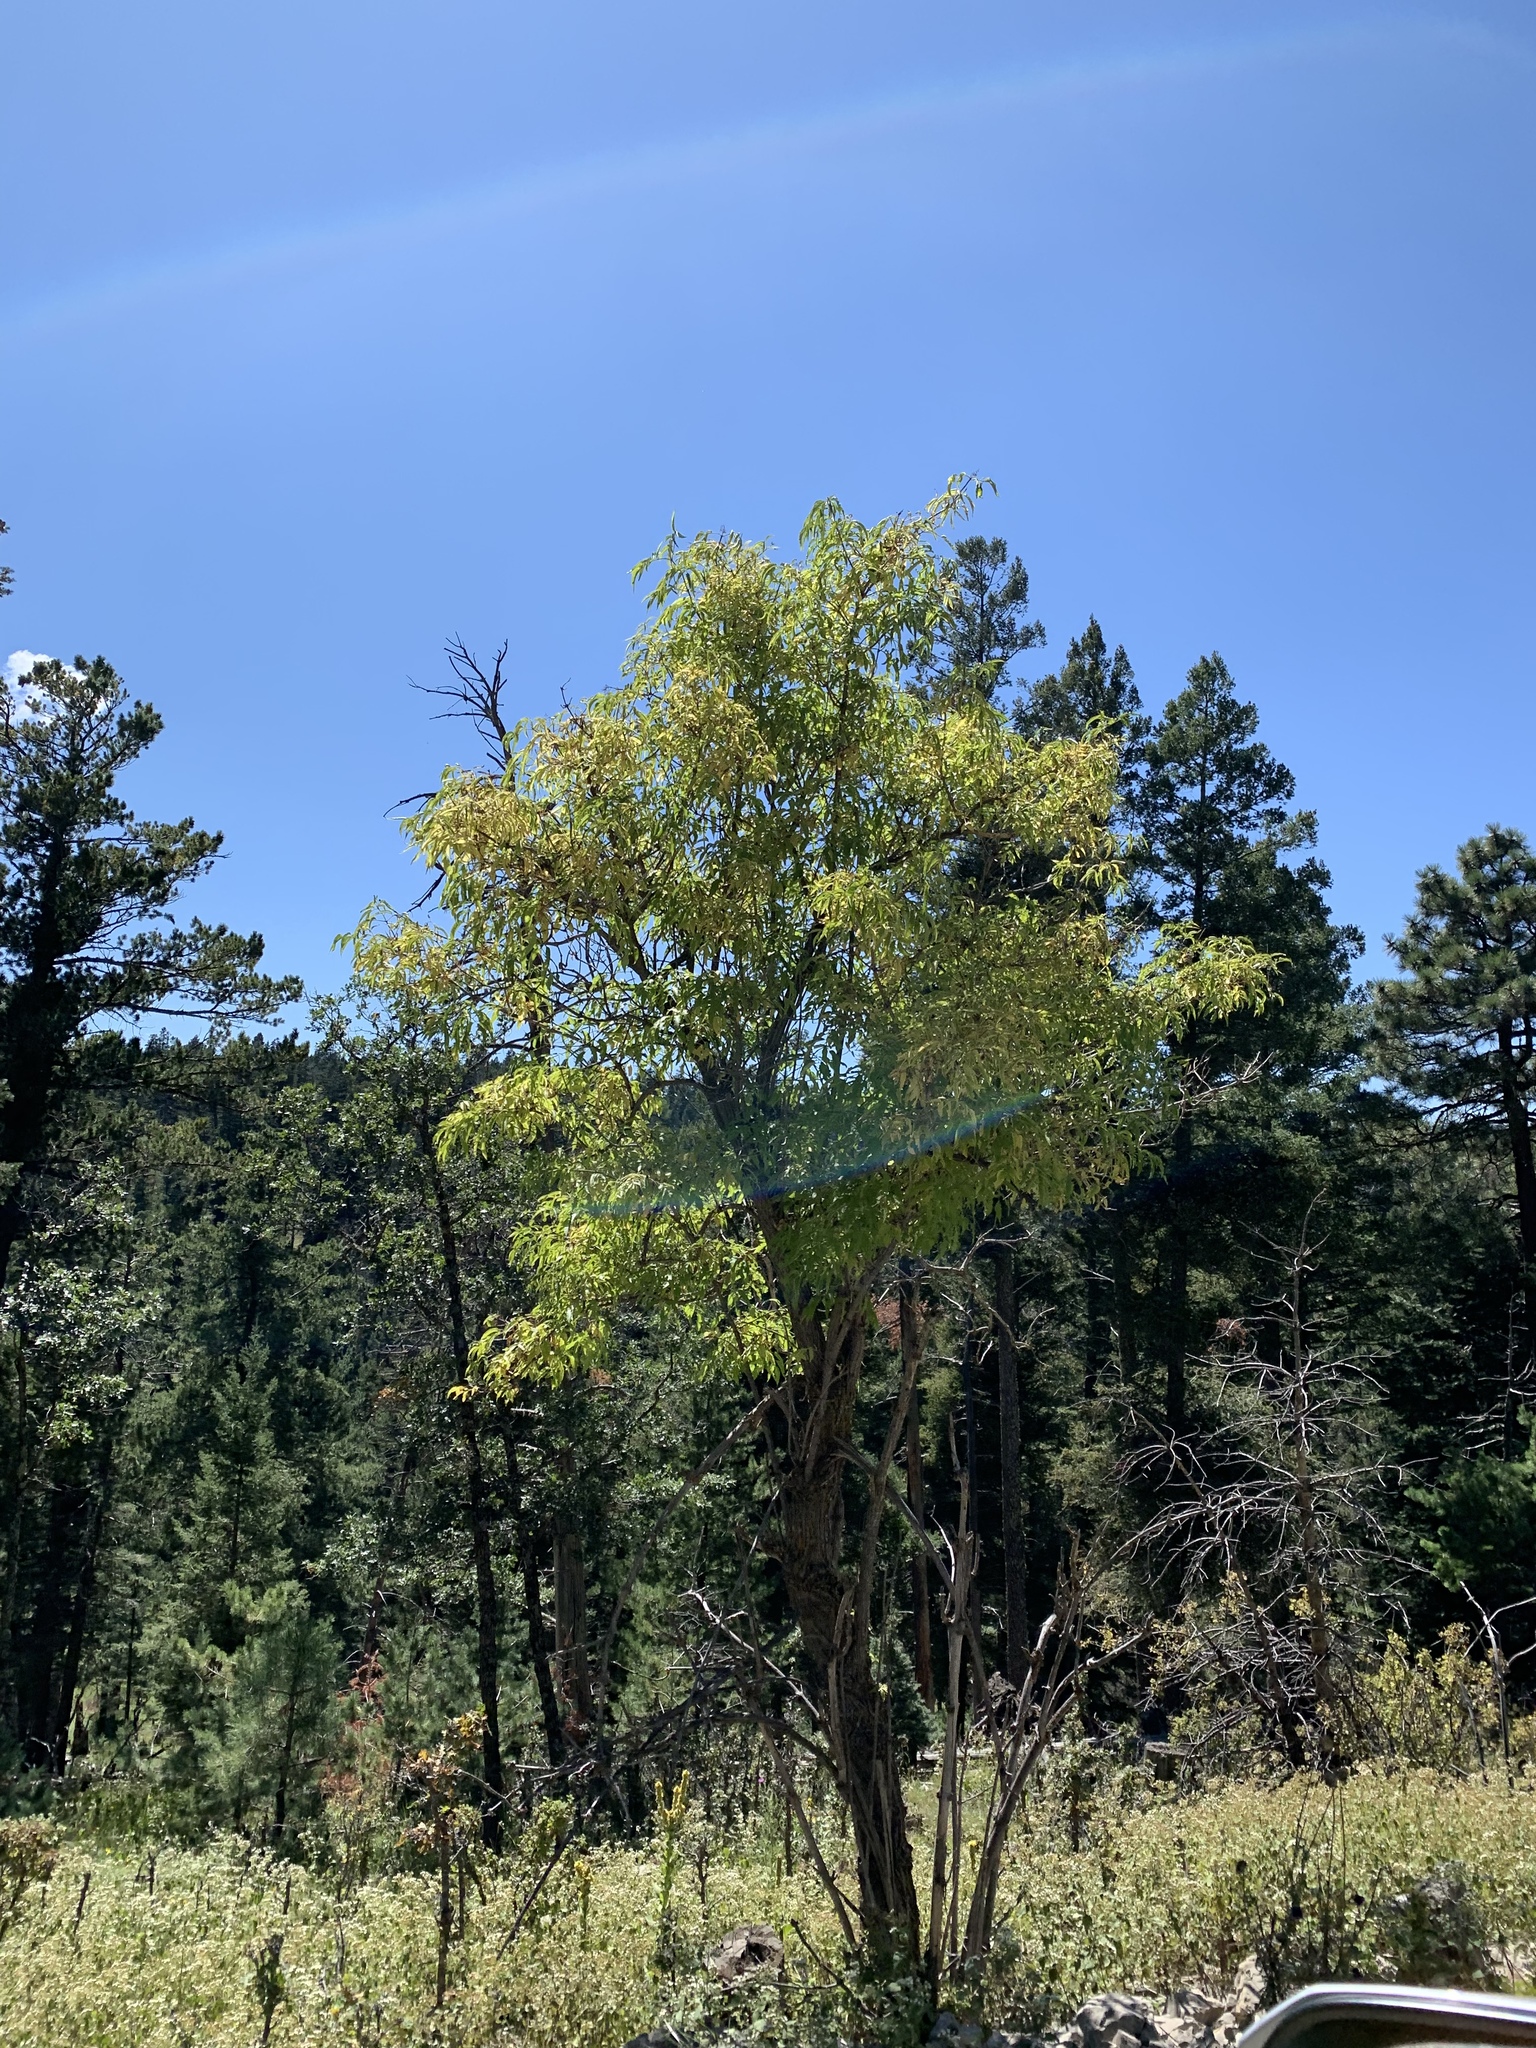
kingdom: Plantae
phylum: Tracheophyta
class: Magnoliopsida
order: Dipsacales
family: Viburnaceae
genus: Sambucus
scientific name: Sambucus cerulea
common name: Blue elder
